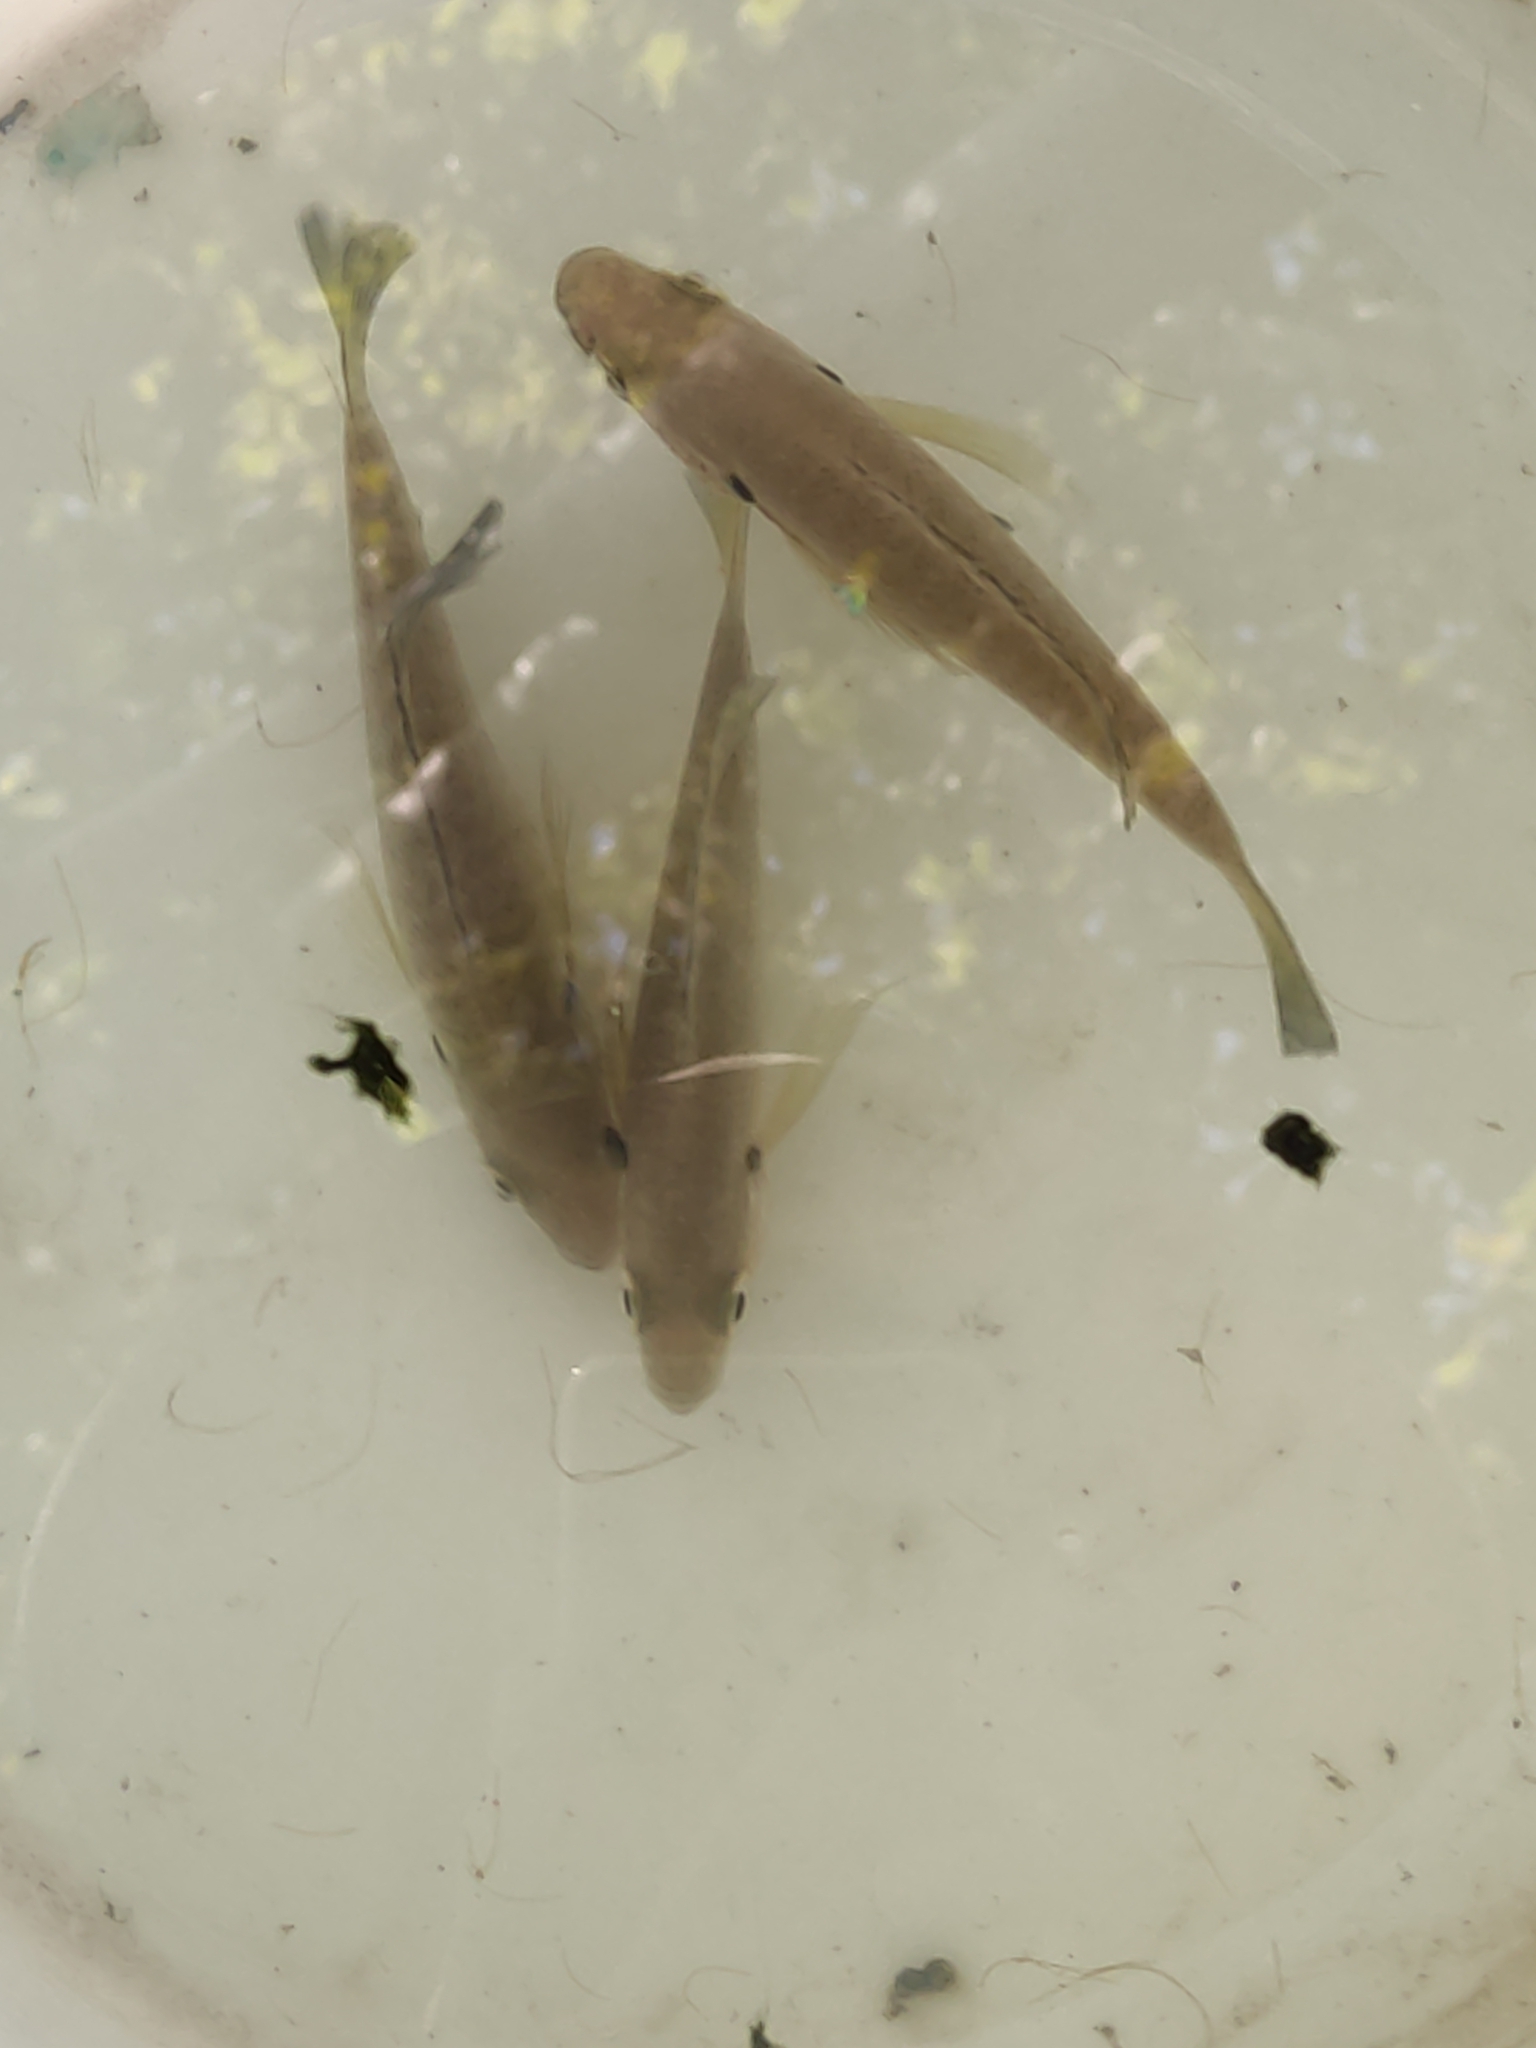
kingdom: Animalia
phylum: Chordata
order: Perciformes
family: Centrarchidae
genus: Lepomis
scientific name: Lepomis macrochirus
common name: Bluegill
